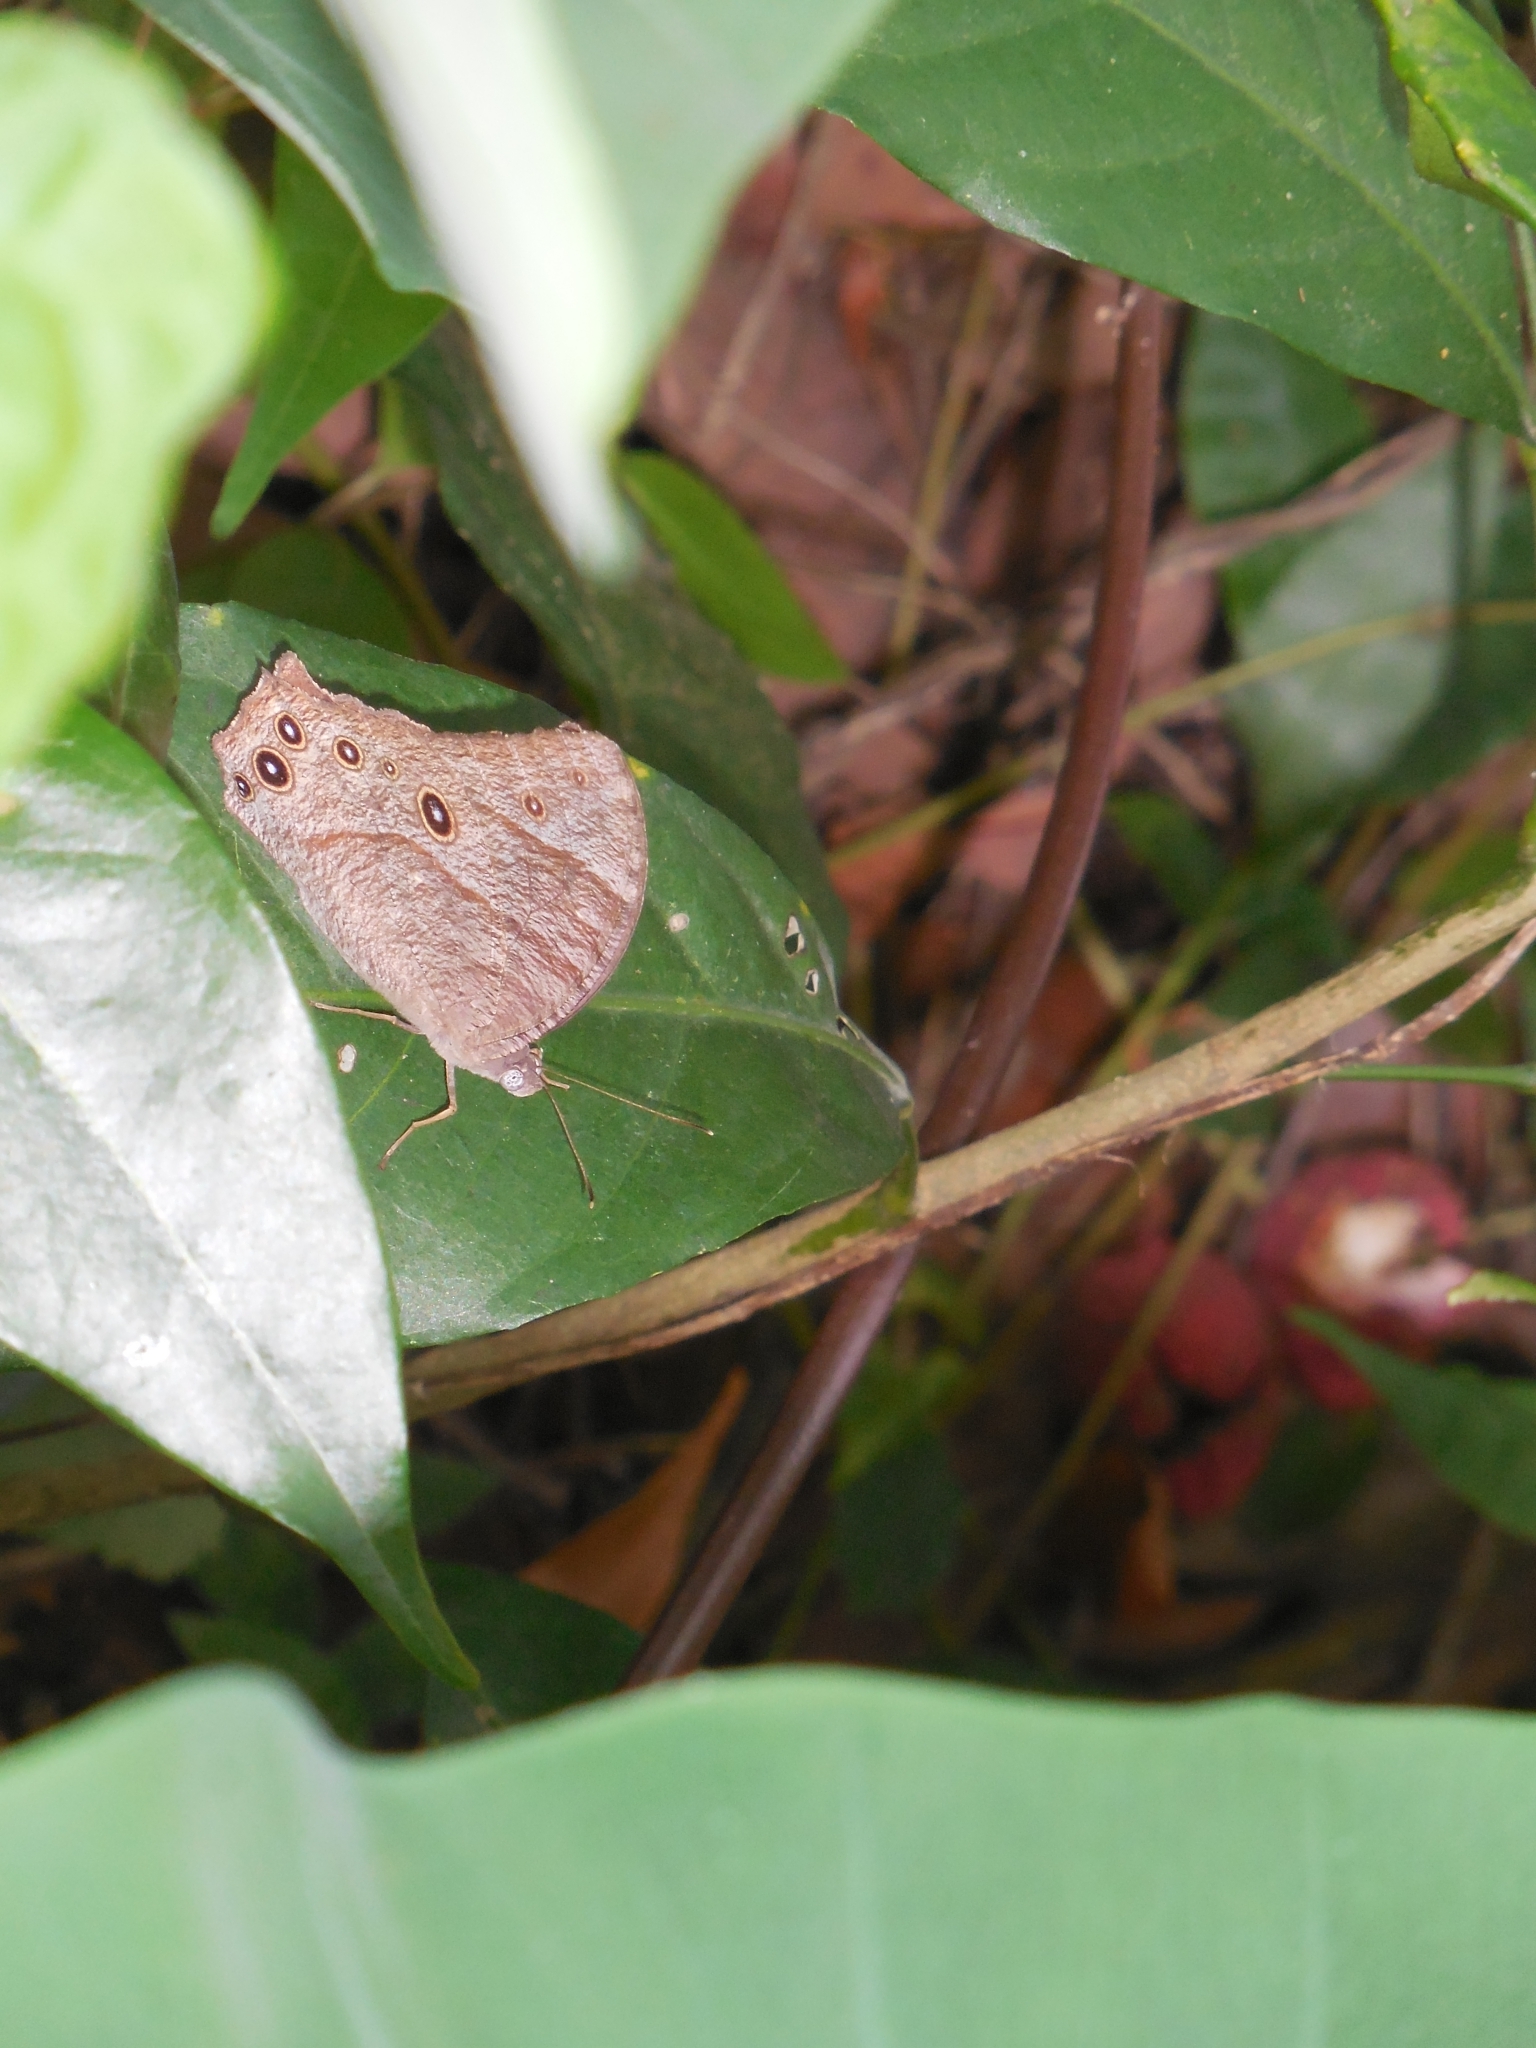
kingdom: Animalia
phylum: Arthropoda
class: Insecta
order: Lepidoptera
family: Nymphalidae
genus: Melanitis
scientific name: Melanitis leda
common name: Twilight brown
